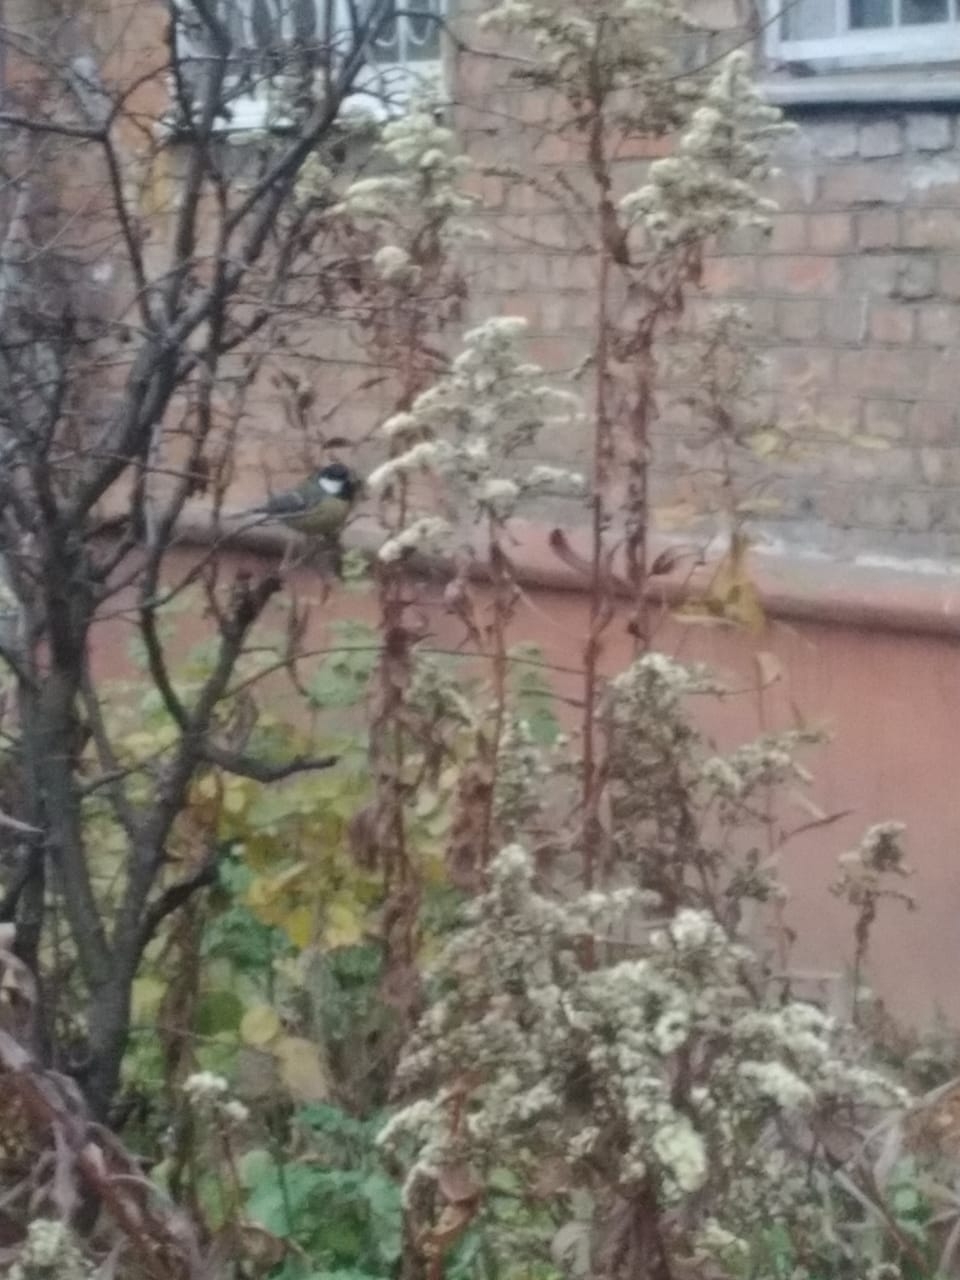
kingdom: Animalia
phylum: Chordata
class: Aves
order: Passeriformes
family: Paridae
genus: Parus
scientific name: Parus major
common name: Great tit
